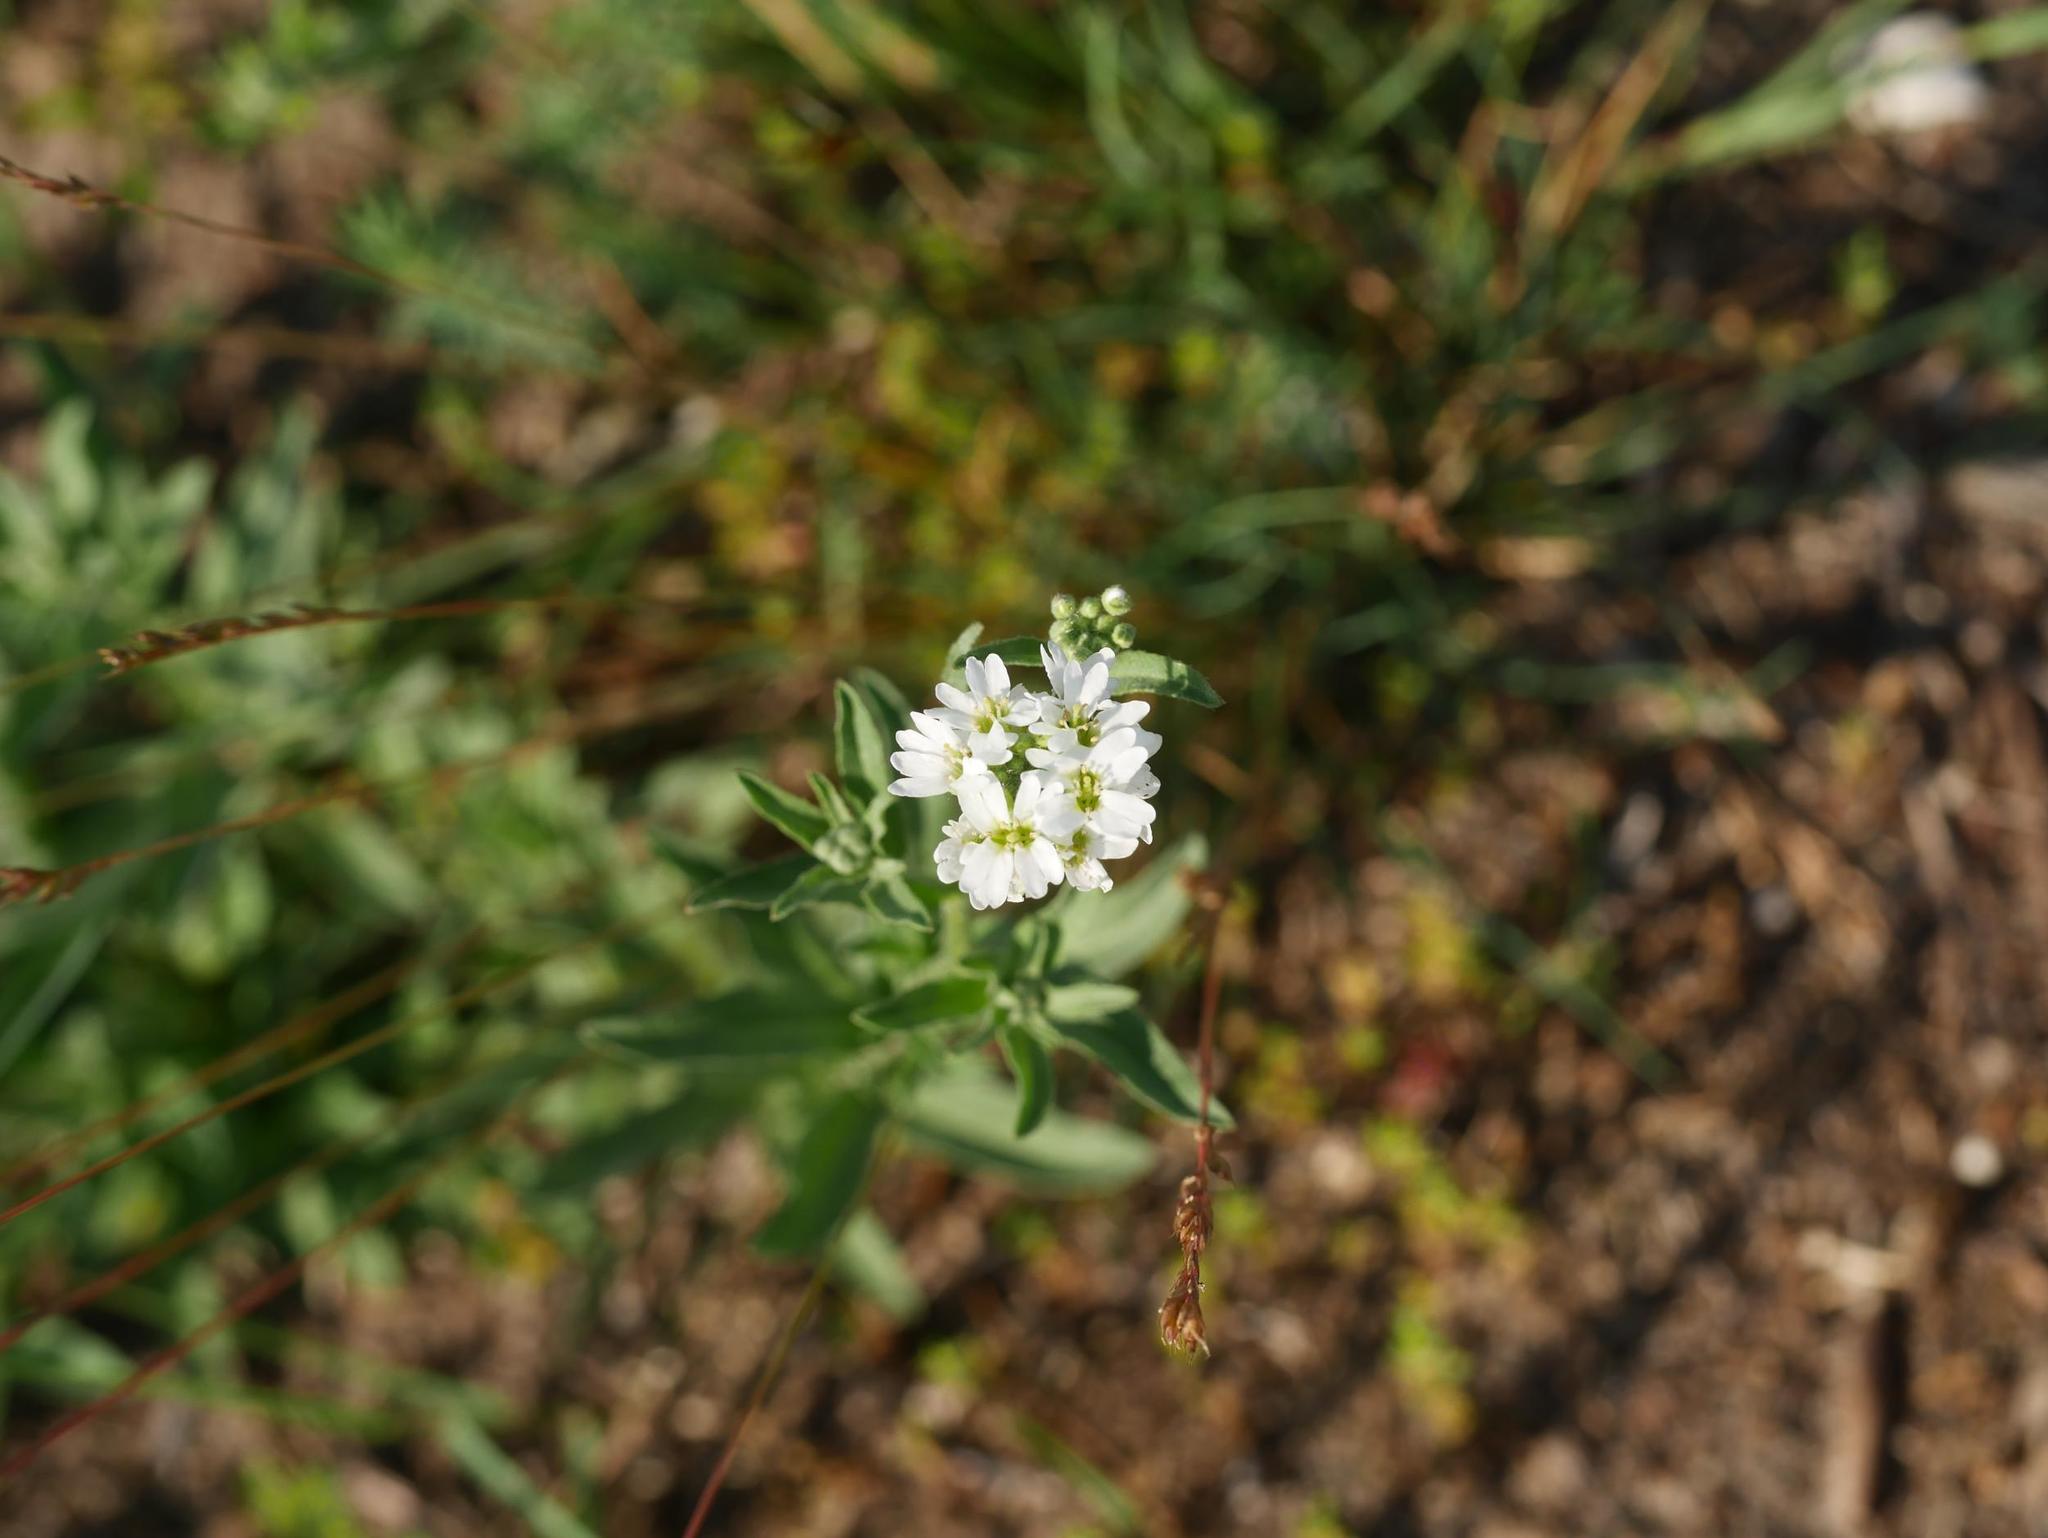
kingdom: Plantae
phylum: Tracheophyta
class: Magnoliopsida
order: Brassicales
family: Brassicaceae
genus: Berteroa
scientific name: Berteroa incana
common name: Hoary alison
